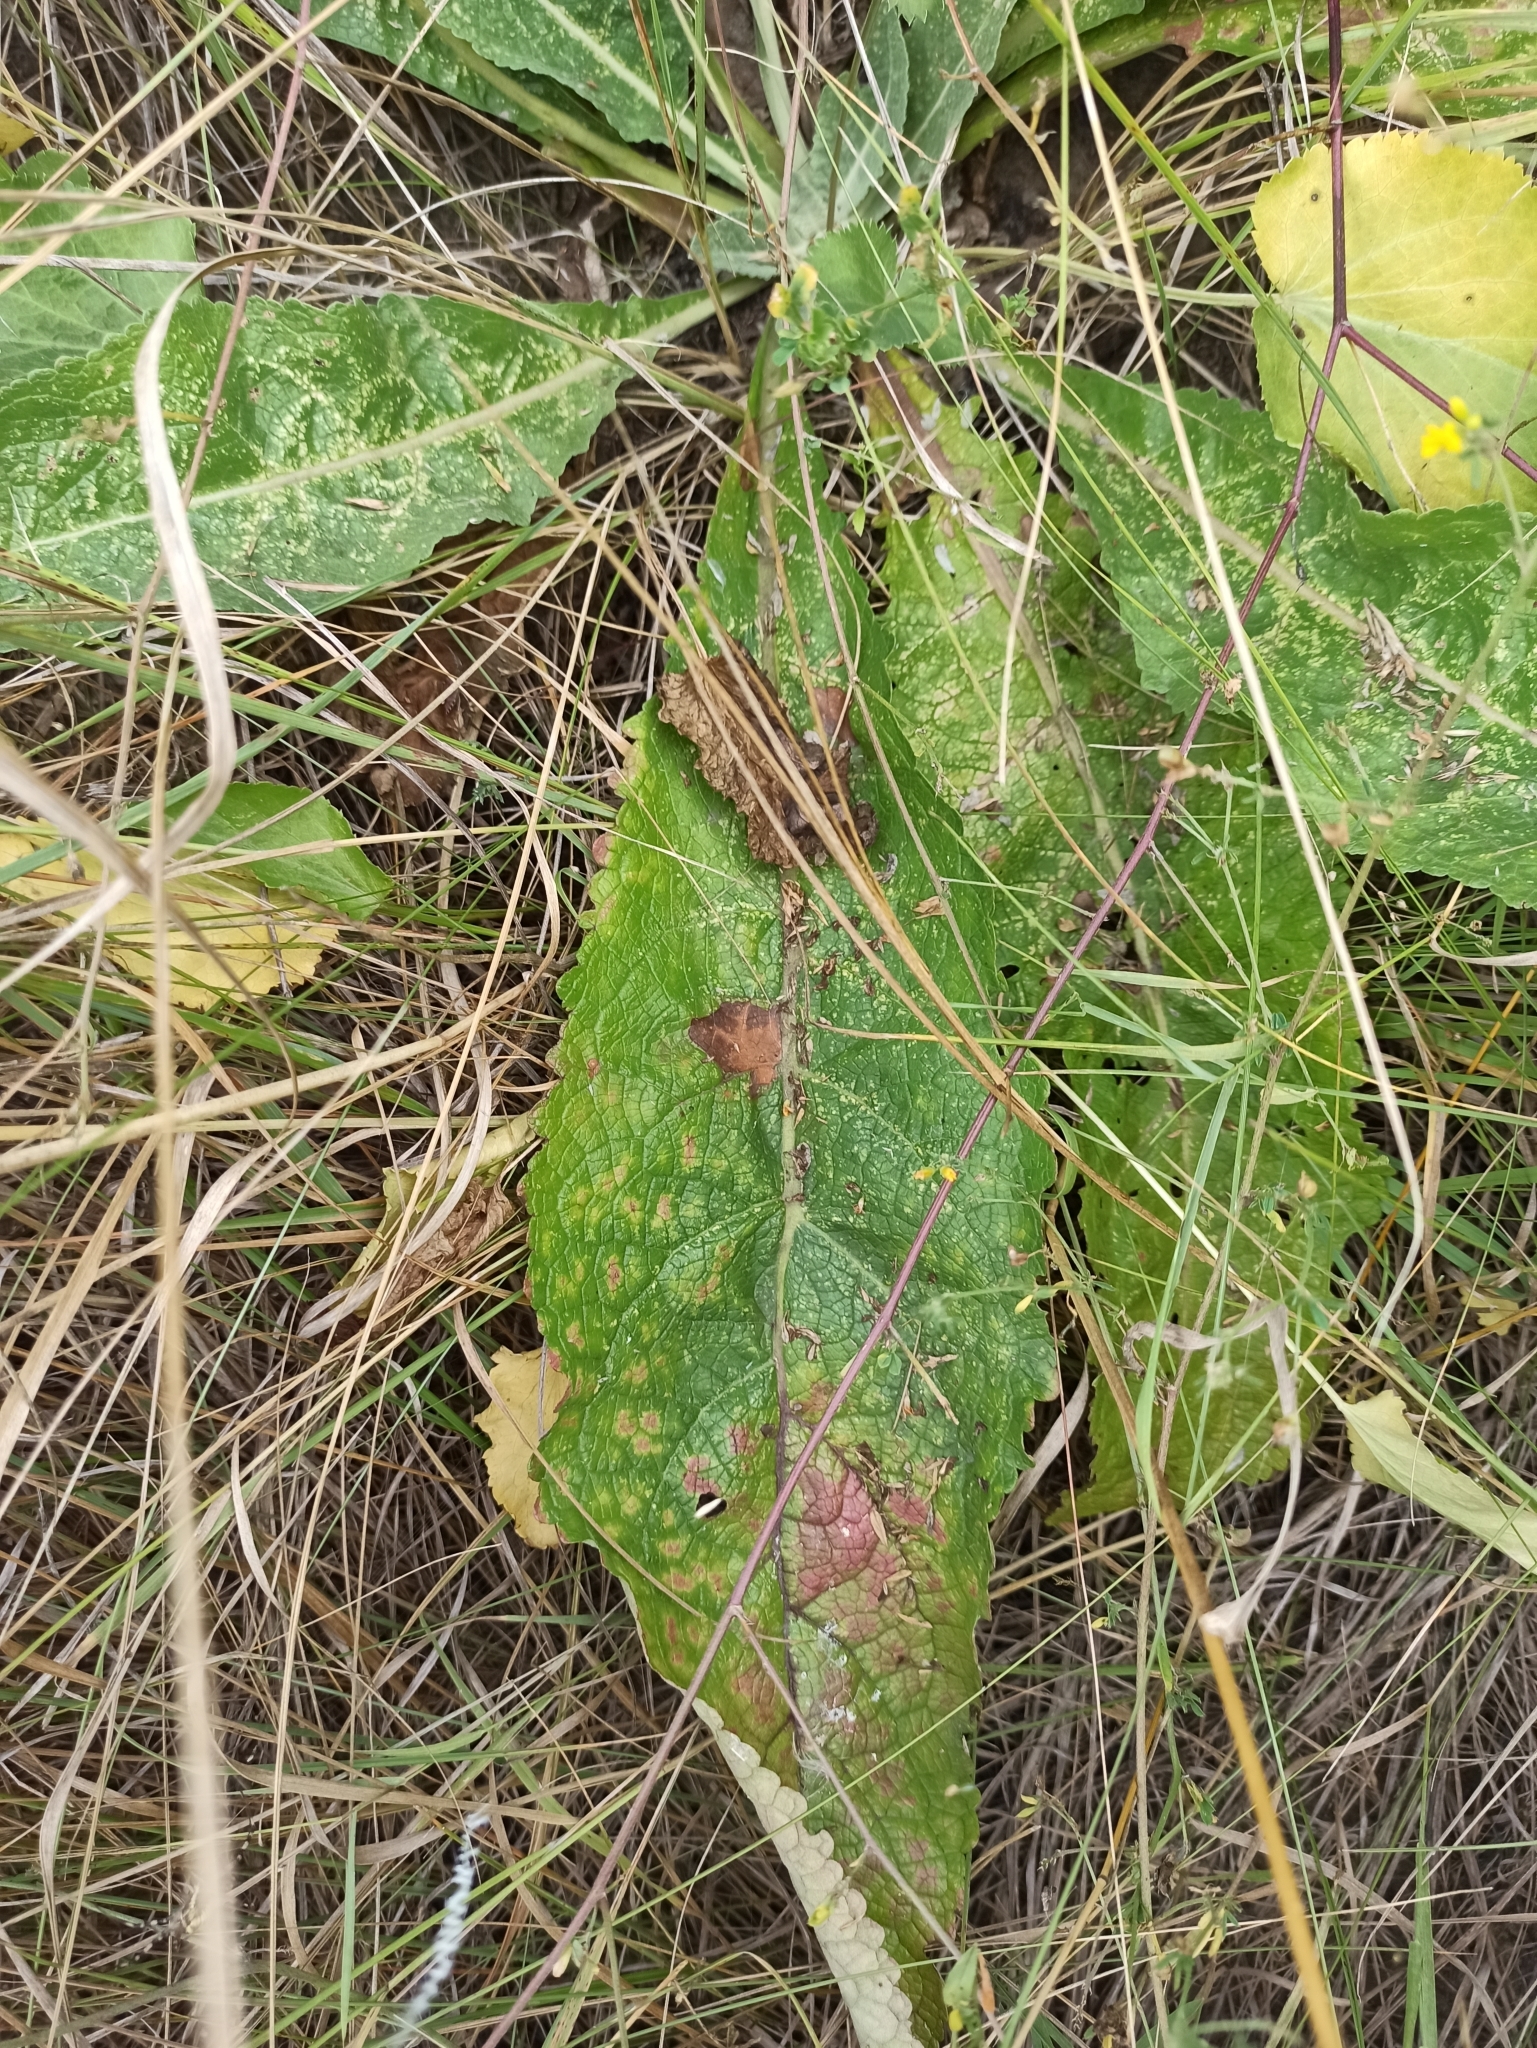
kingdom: Plantae
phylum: Tracheophyta
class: Magnoliopsida
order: Lamiales
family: Scrophulariaceae
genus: Verbascum
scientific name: Verbascum lychnitis
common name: White mullein
